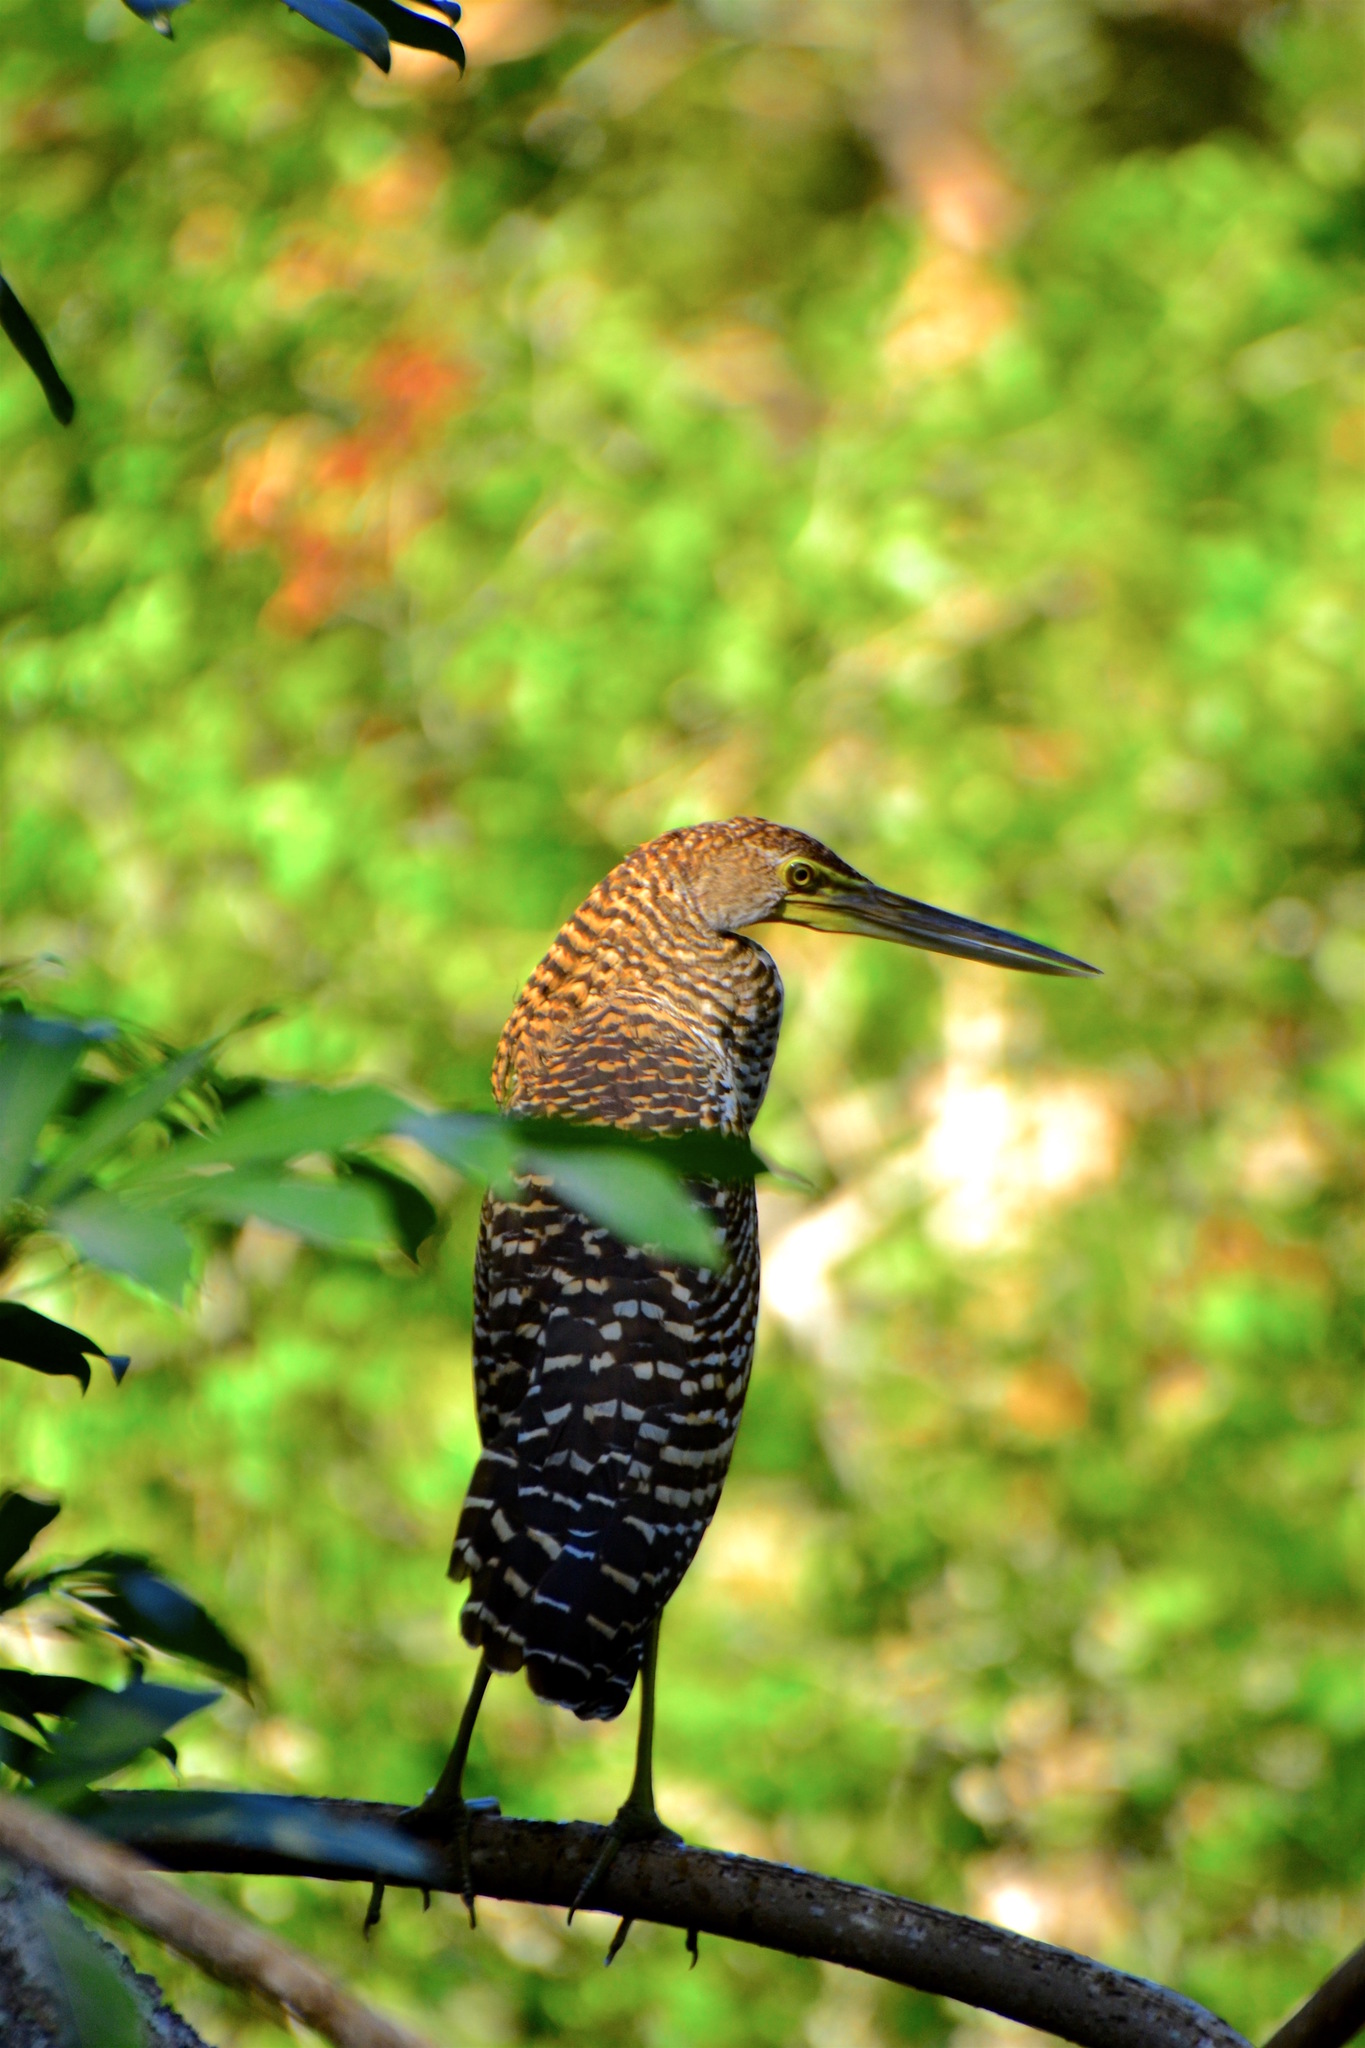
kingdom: Animalia
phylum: Chordata
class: Aves
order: Pelecaniformes
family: Ardeidae
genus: Tigrisoma
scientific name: Tigrisoma mexicanum
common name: Bare-throated tiger-heron
